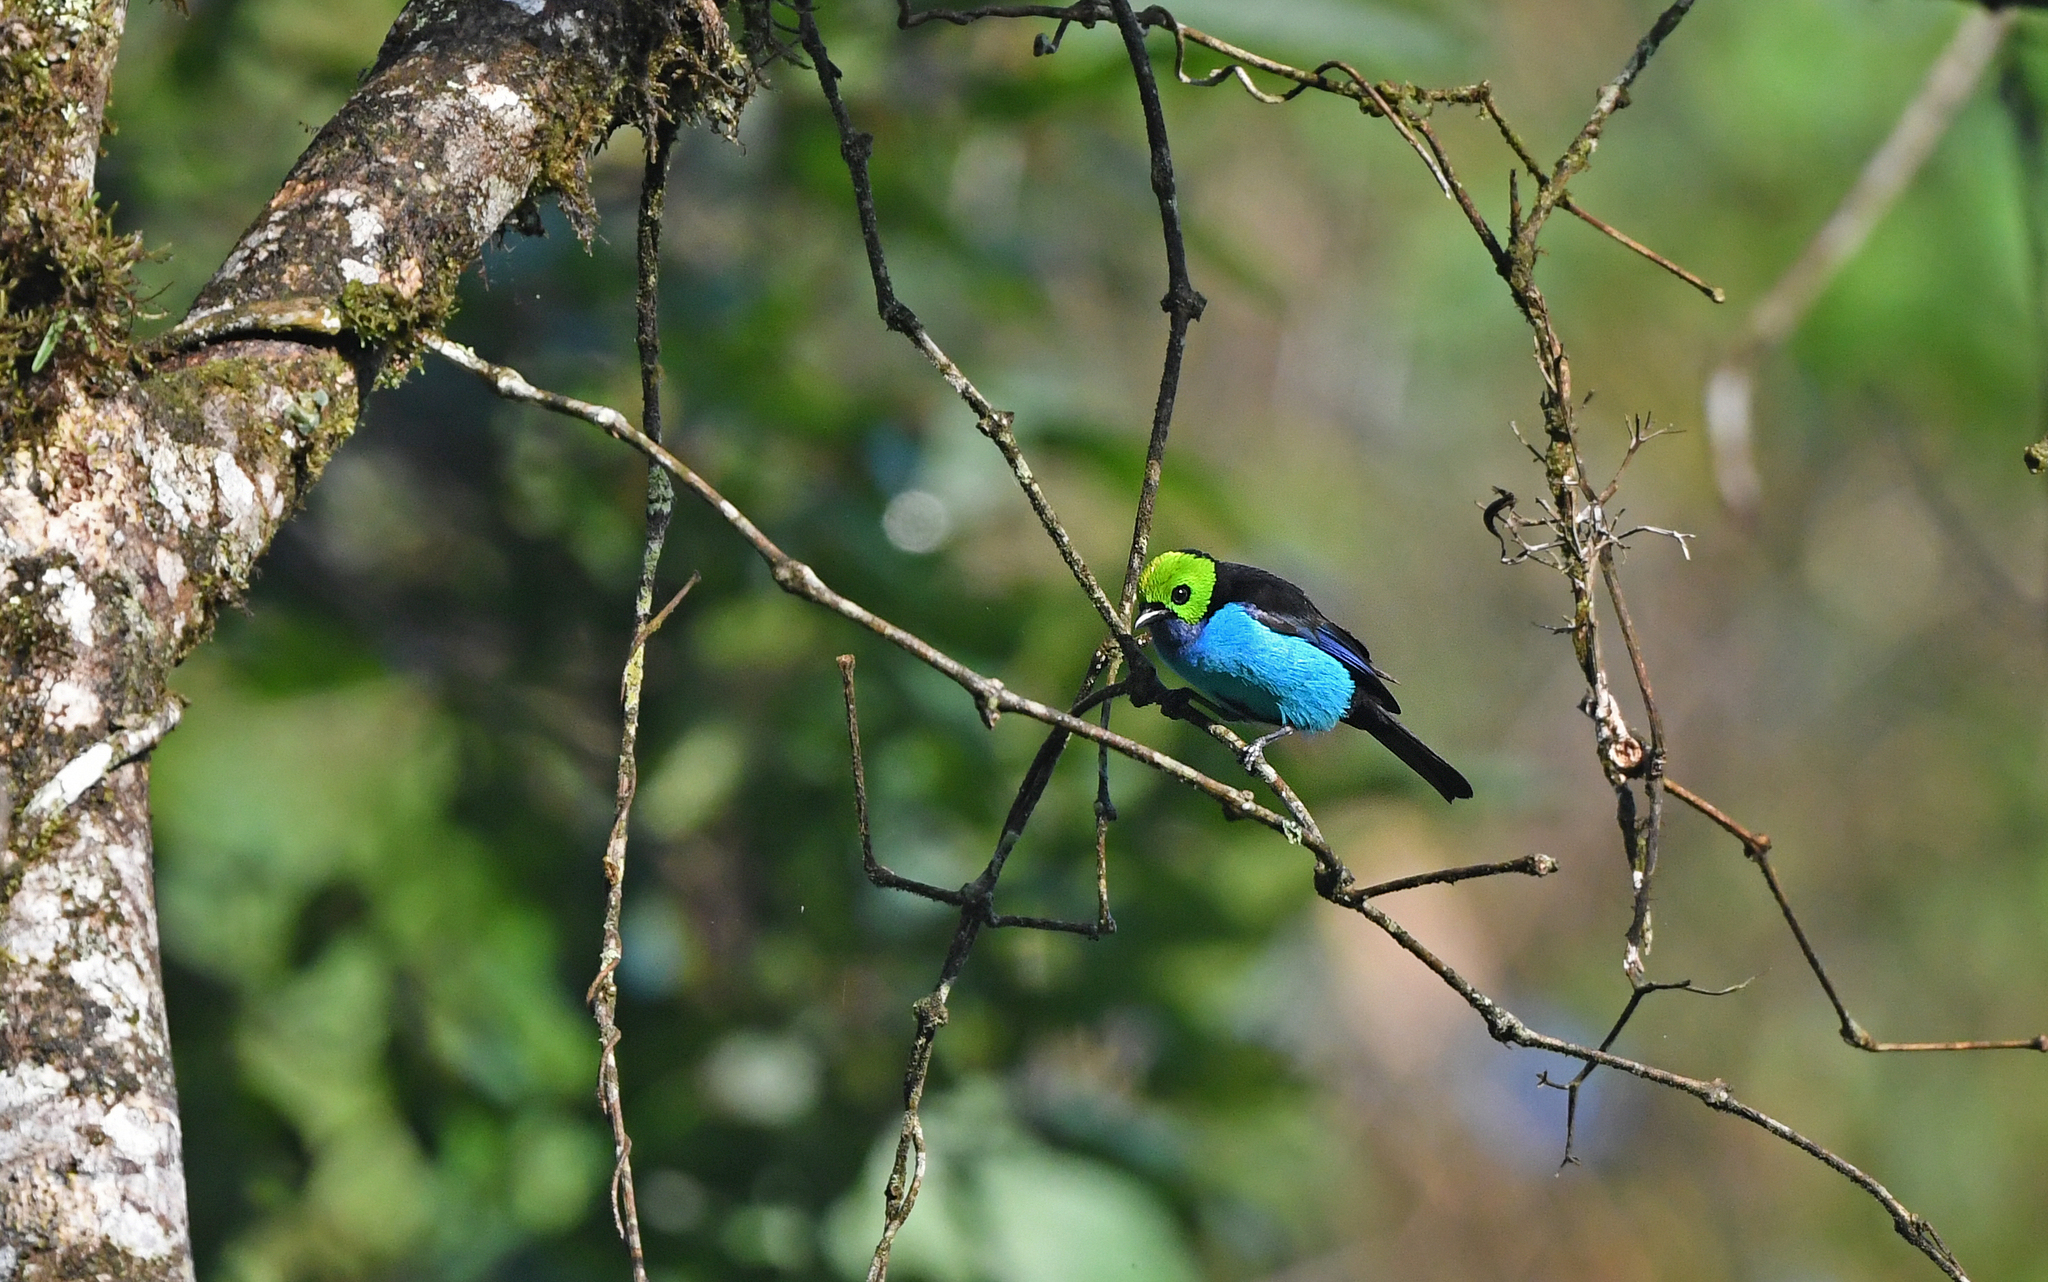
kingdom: Animalia
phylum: Chordata
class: Aves
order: Passeriformes
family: Thraupidae
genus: Tangara
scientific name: Tangara chilensis
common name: Paradise tanager
